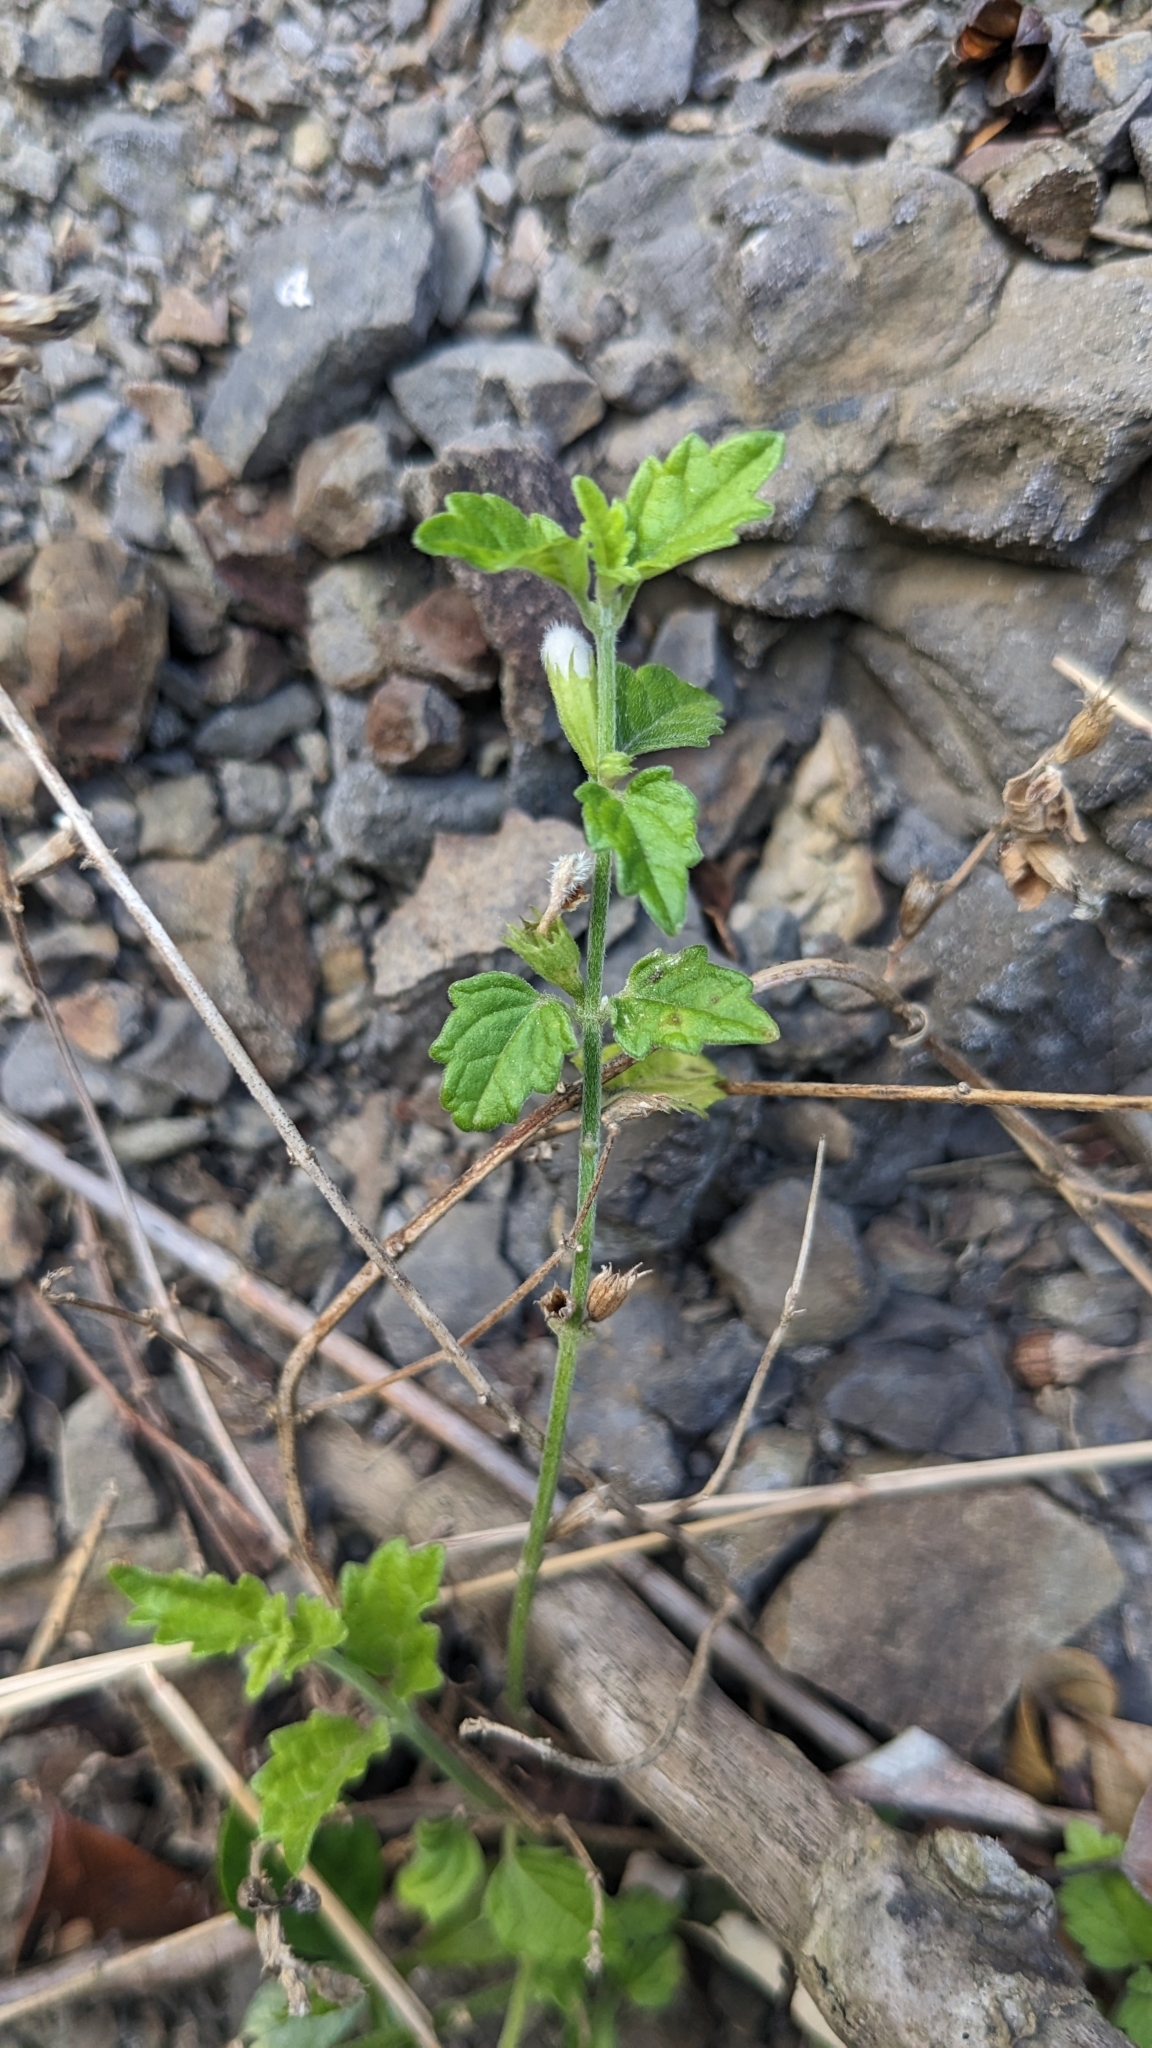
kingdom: Plantae
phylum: Tracheophyta
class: Magnoliopsida
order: Lamiales
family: Lamiaceae
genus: Leucas
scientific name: Leucas chinensis
